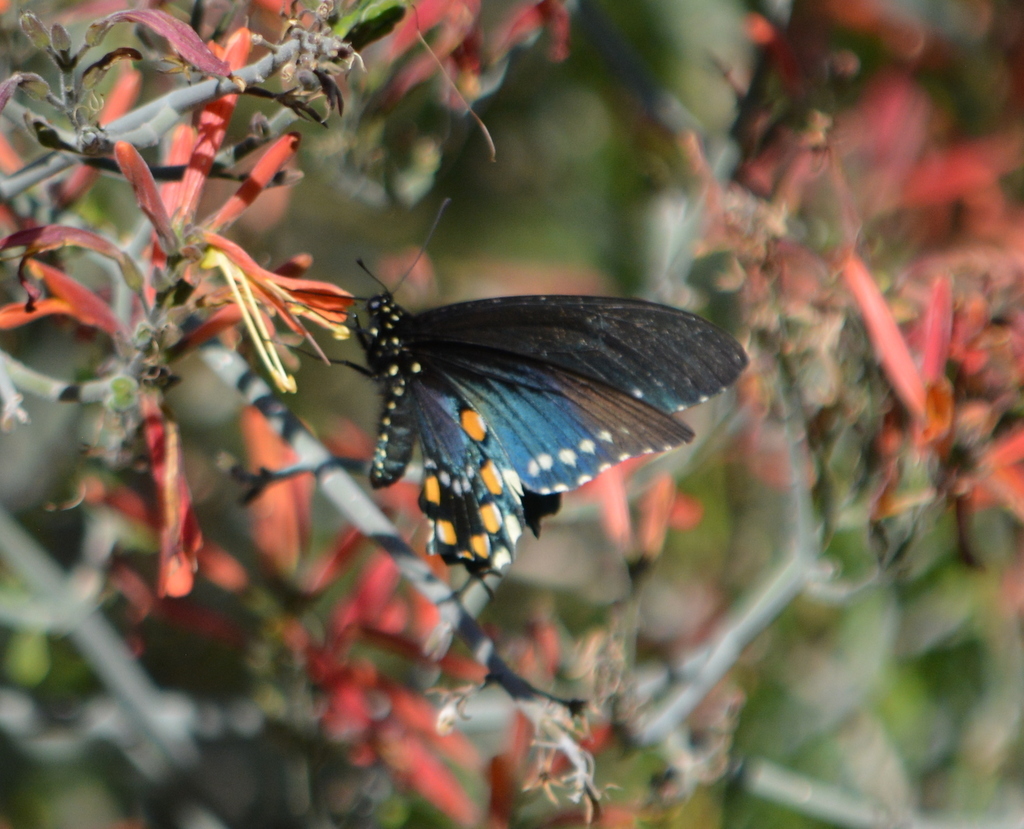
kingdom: Animalia
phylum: Arthropoda
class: Insecta
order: Lepidoptera
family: Papilionidae
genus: Battus
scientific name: Battus philenor
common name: Pipevine swallowtail
